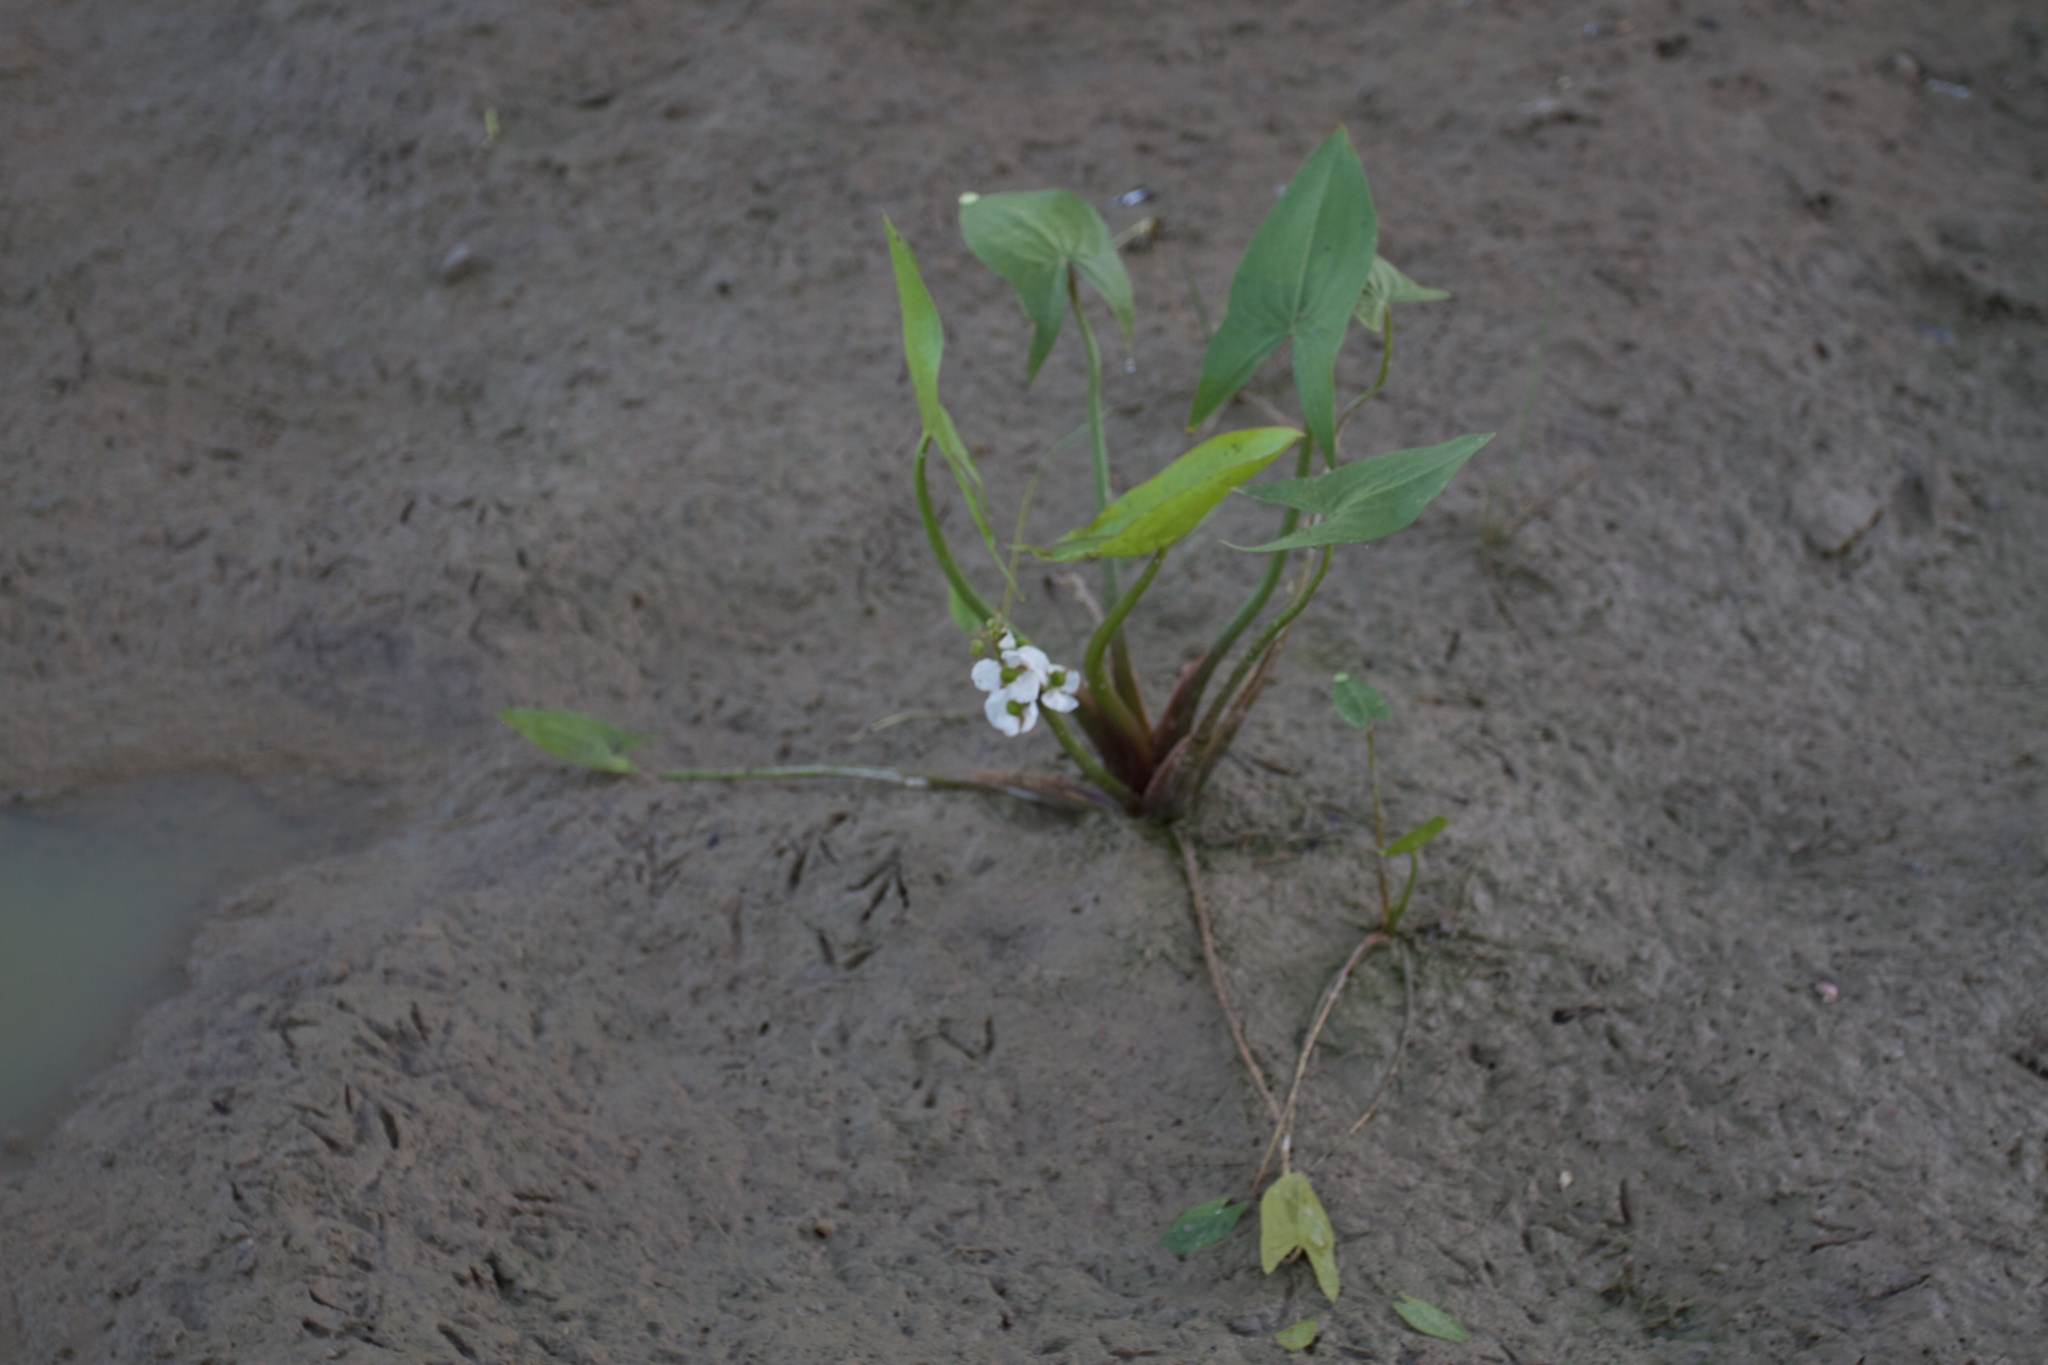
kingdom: Plantae
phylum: Tracheophyta
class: Liliopsida
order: Alismatales
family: Alismataceae
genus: Sagittaria
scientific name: Sagittaria cuneata
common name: Northern arrowhead
